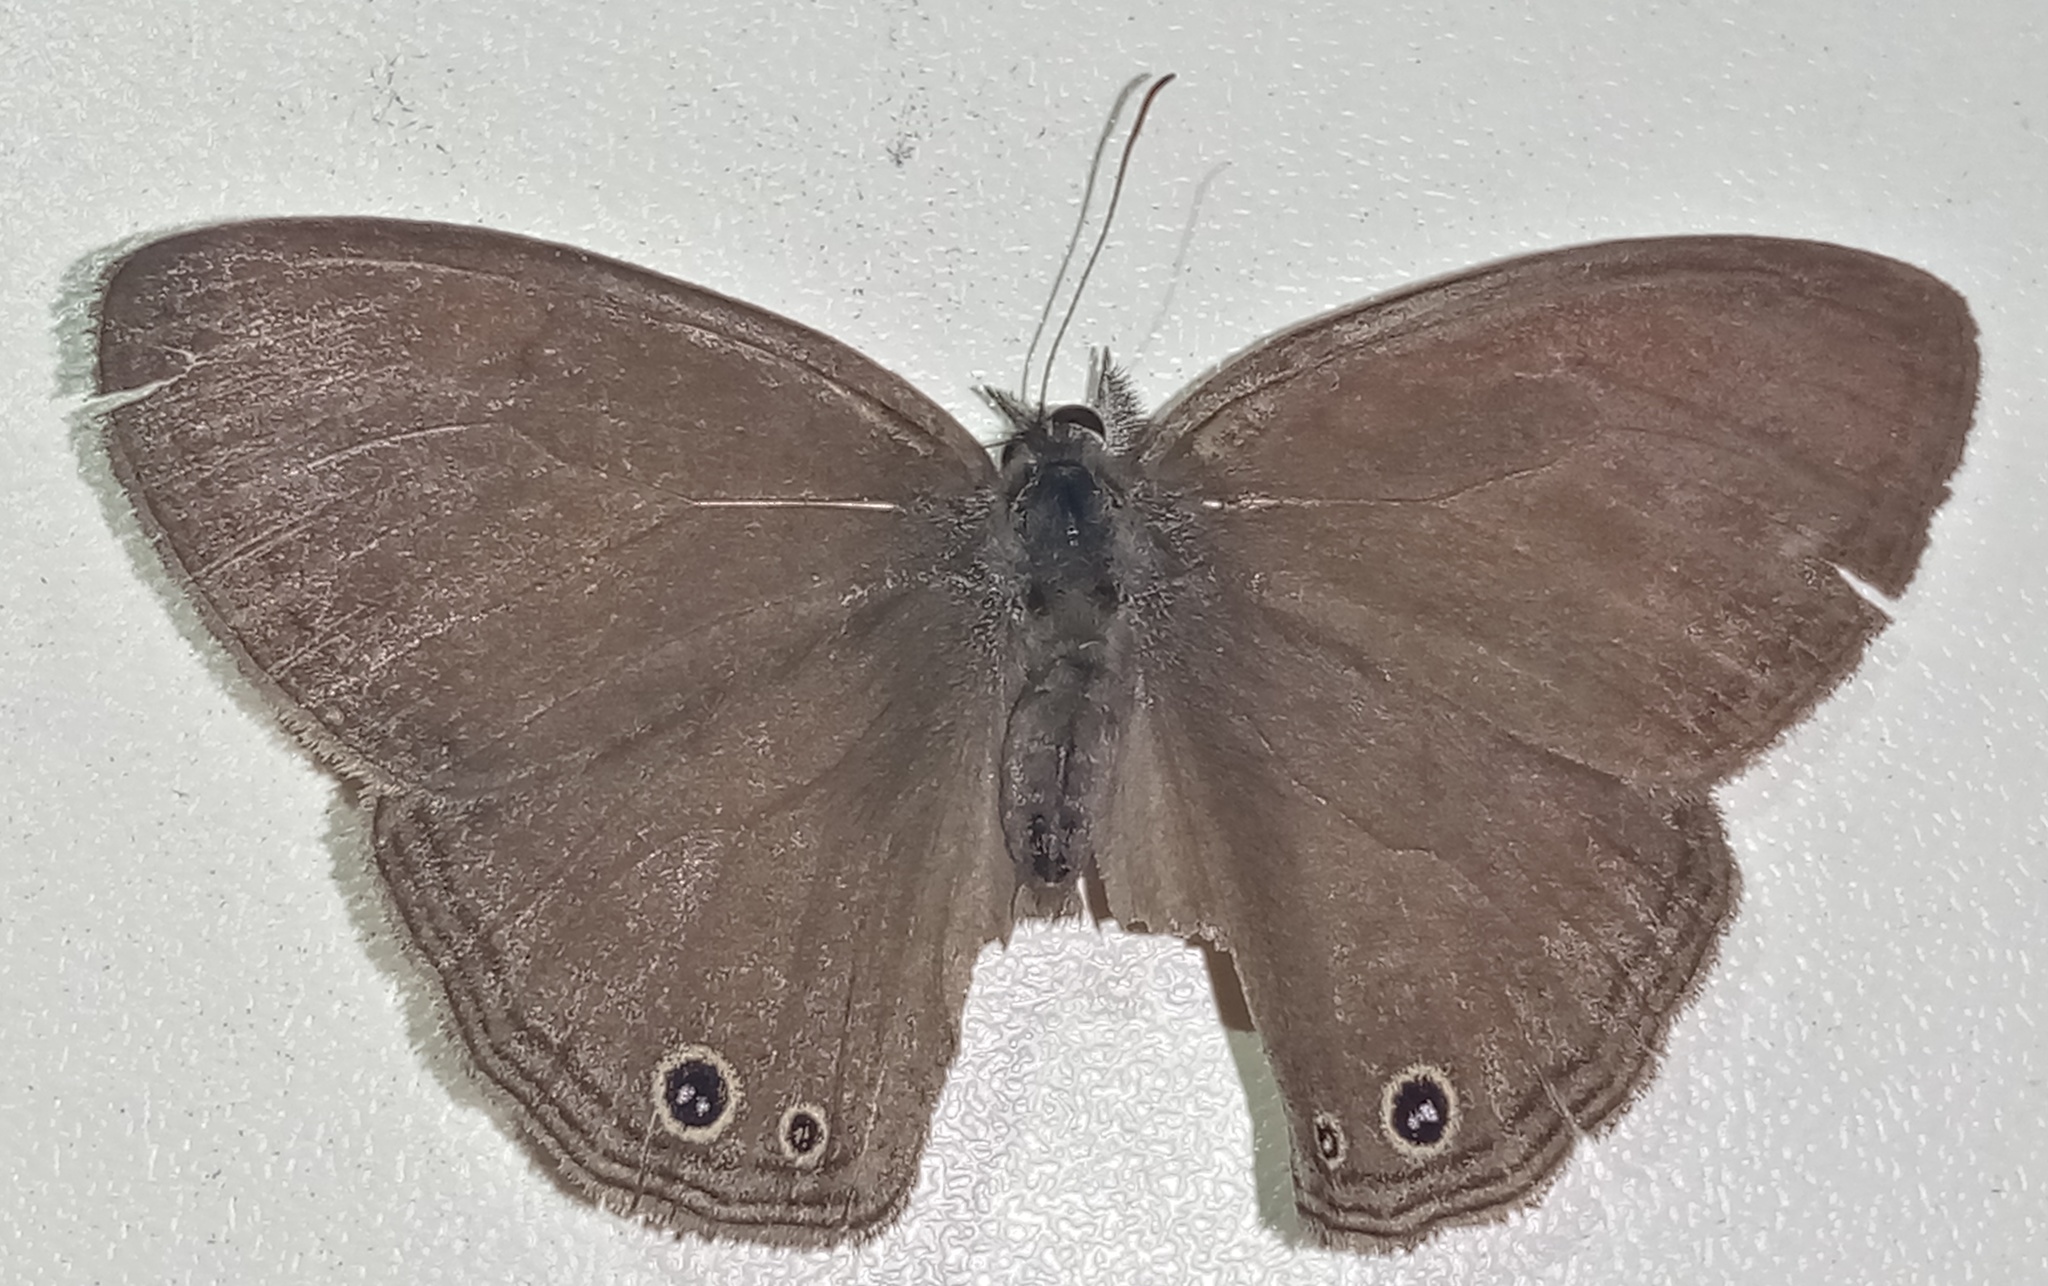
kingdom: Animalia
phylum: Arthropoda
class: Insecta
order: Lepidoptera
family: Nymphalidae
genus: Yphthimoides
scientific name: Yphthimoides renata
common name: Renata’s satyr
